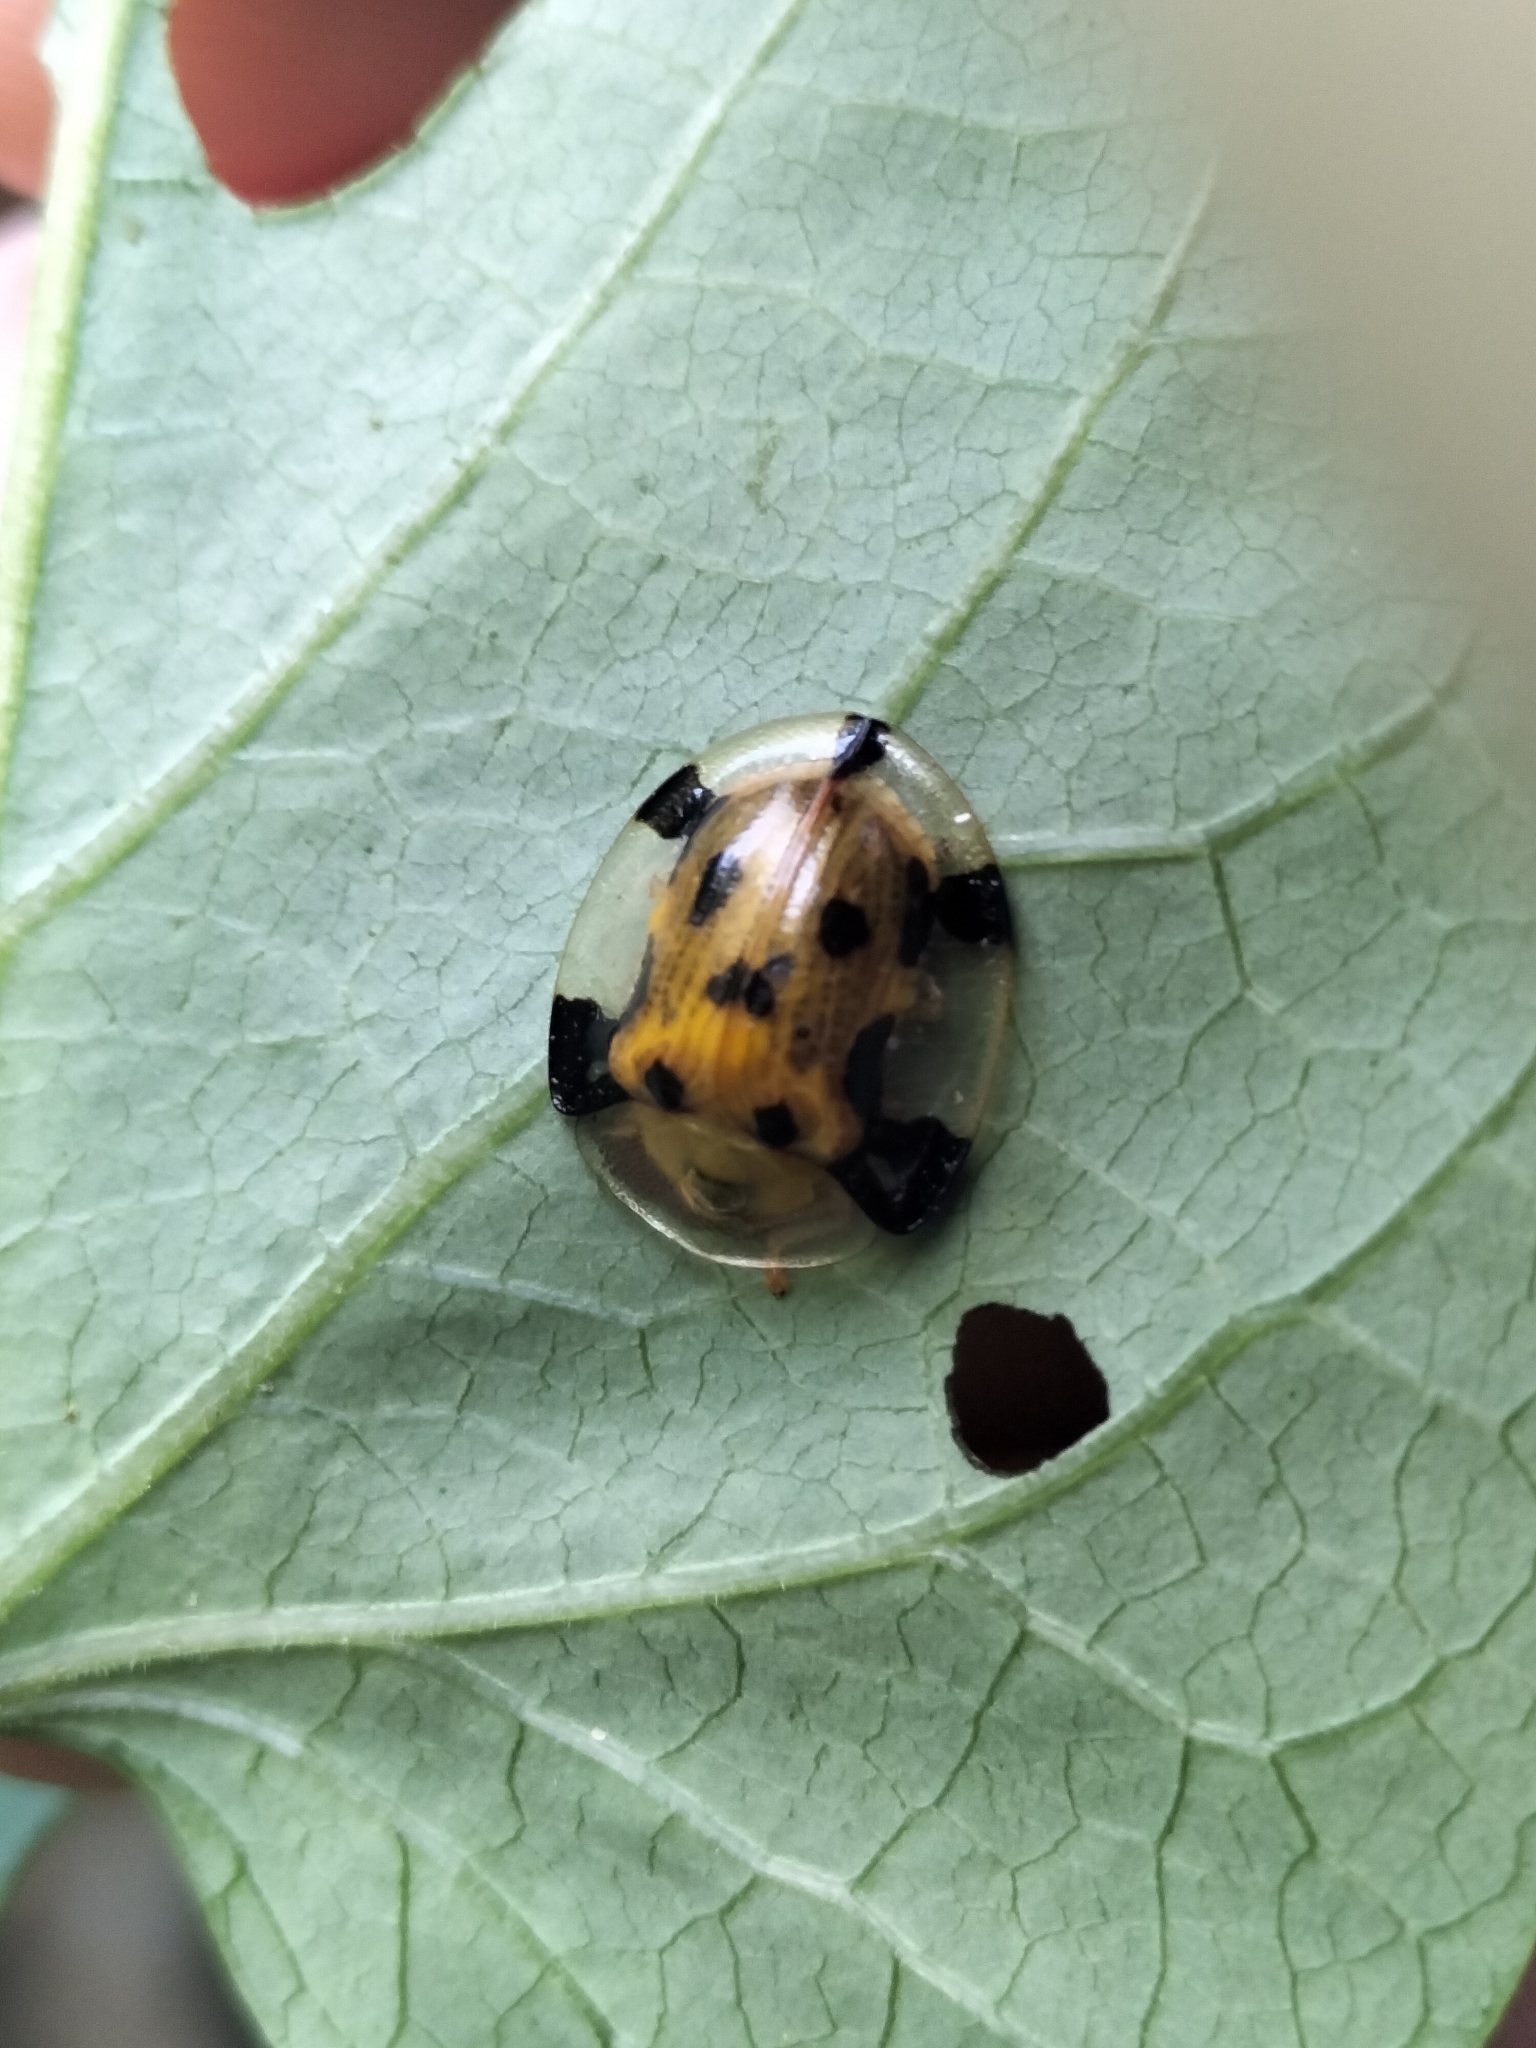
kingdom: Animalia
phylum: Arthropoda
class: Insecta
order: Coleoptera
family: Chrysomelidae
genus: Aspidimorpha
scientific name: Aspidimorpha punctum
